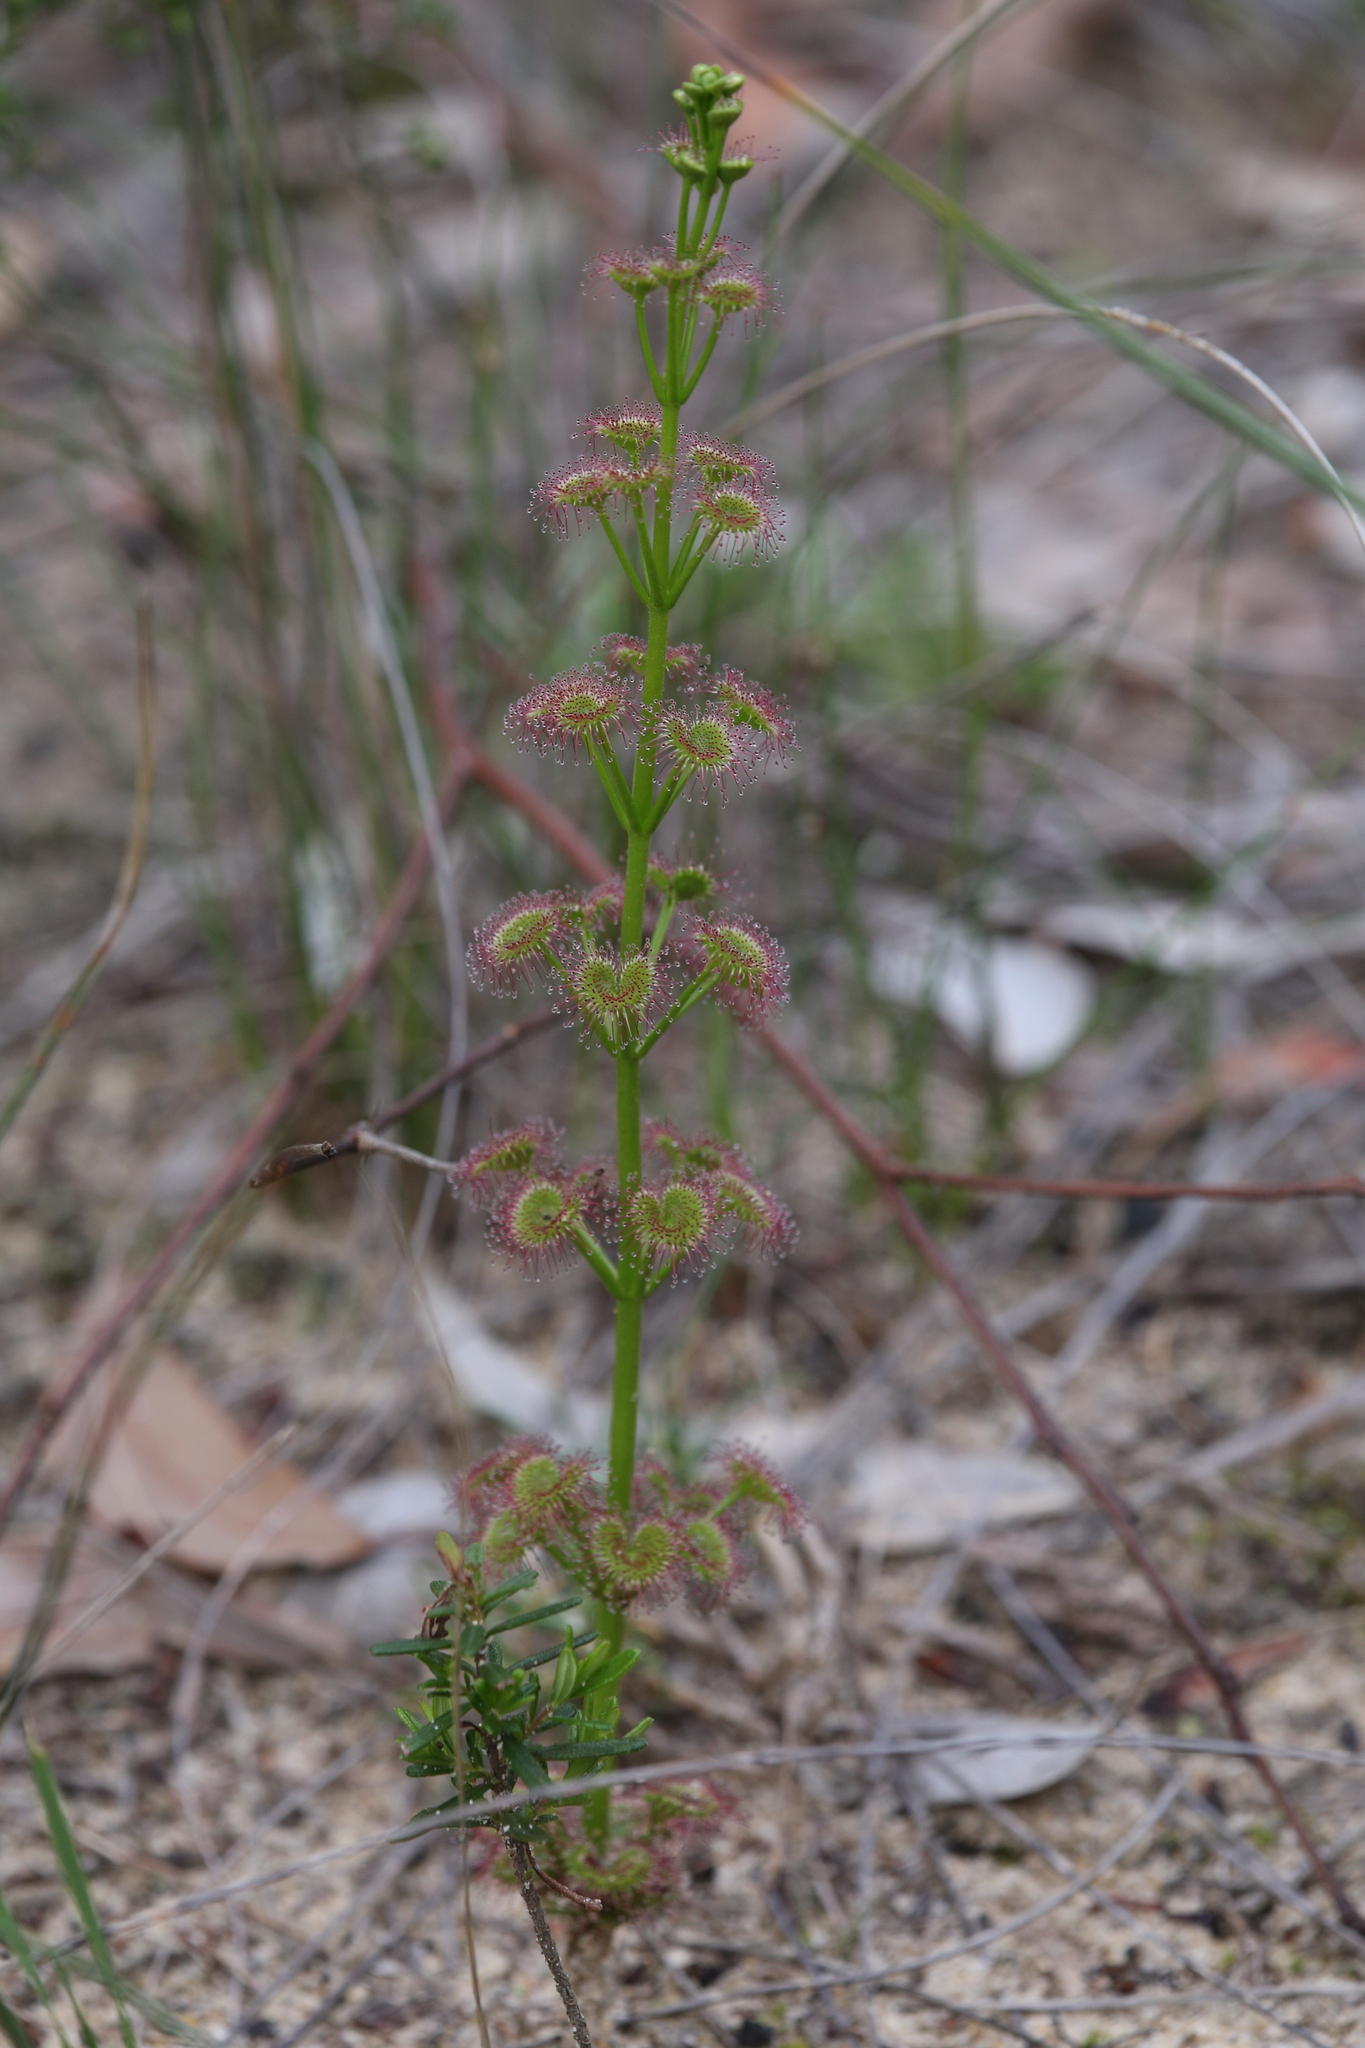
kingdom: Plantae
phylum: Tracheophyta
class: Magnoliopsida
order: Caryophyllales
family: Droseraceae
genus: Drosera
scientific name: Drosera stolonifera
